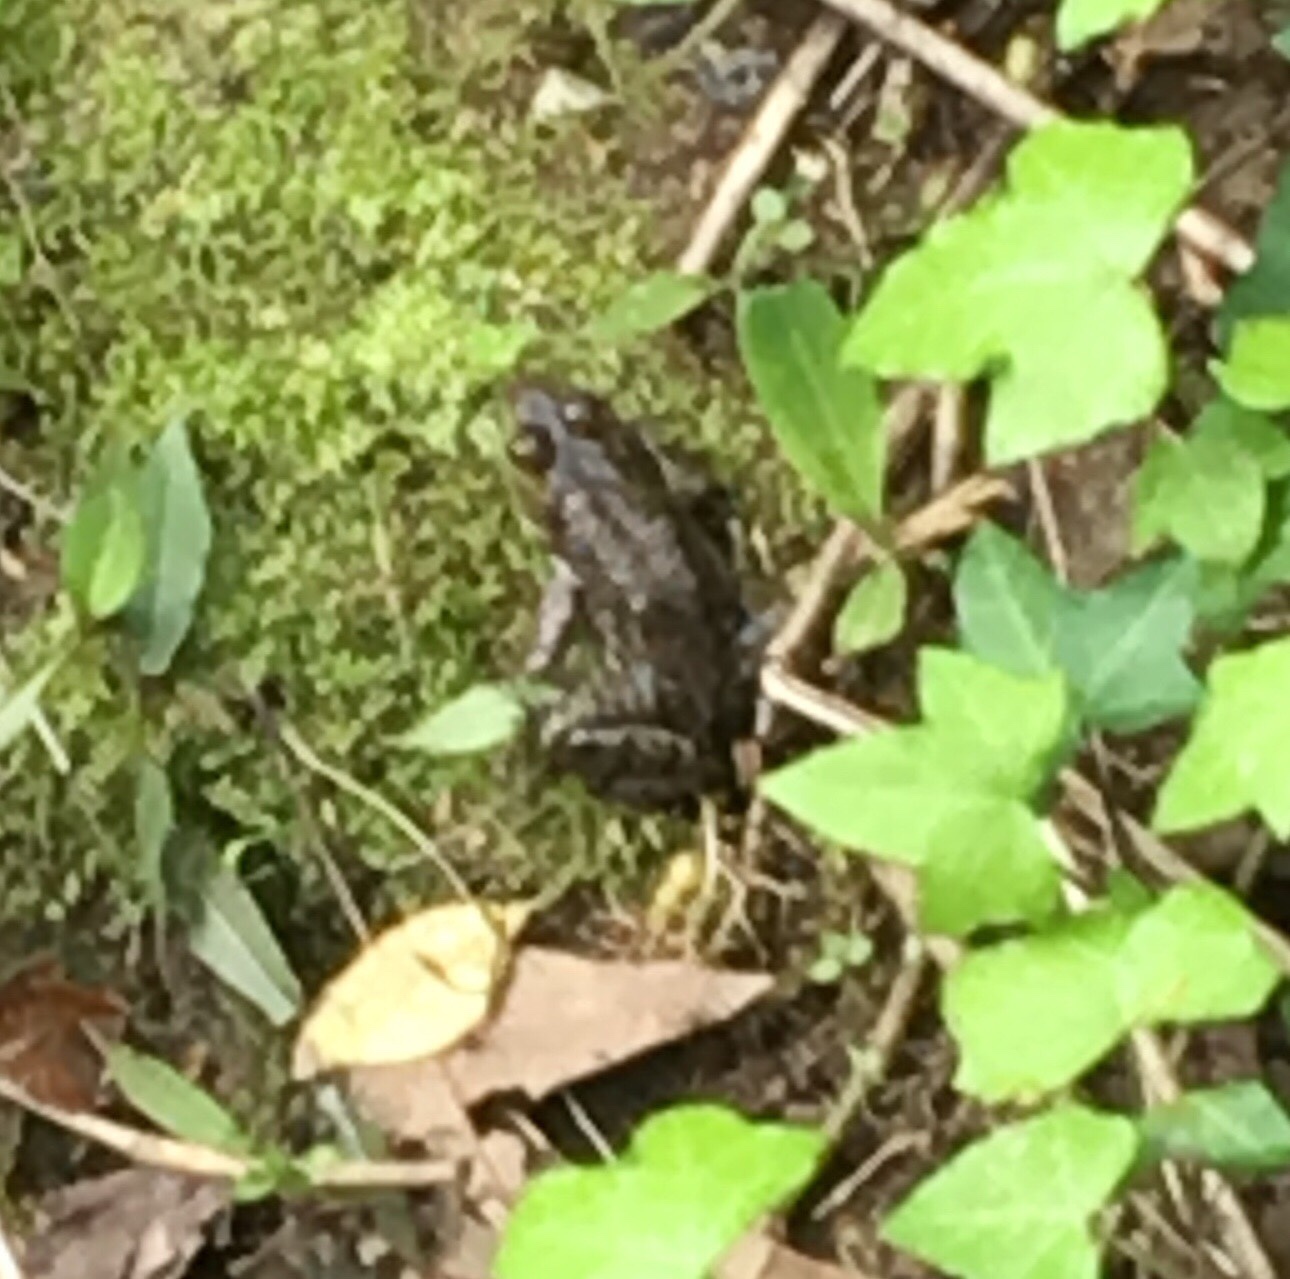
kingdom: Animalia
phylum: Chordata
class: Amphibia
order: Anura
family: Ranidae
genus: Lithobates
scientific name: Lithobates catesbeianus
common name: American bullfrog
